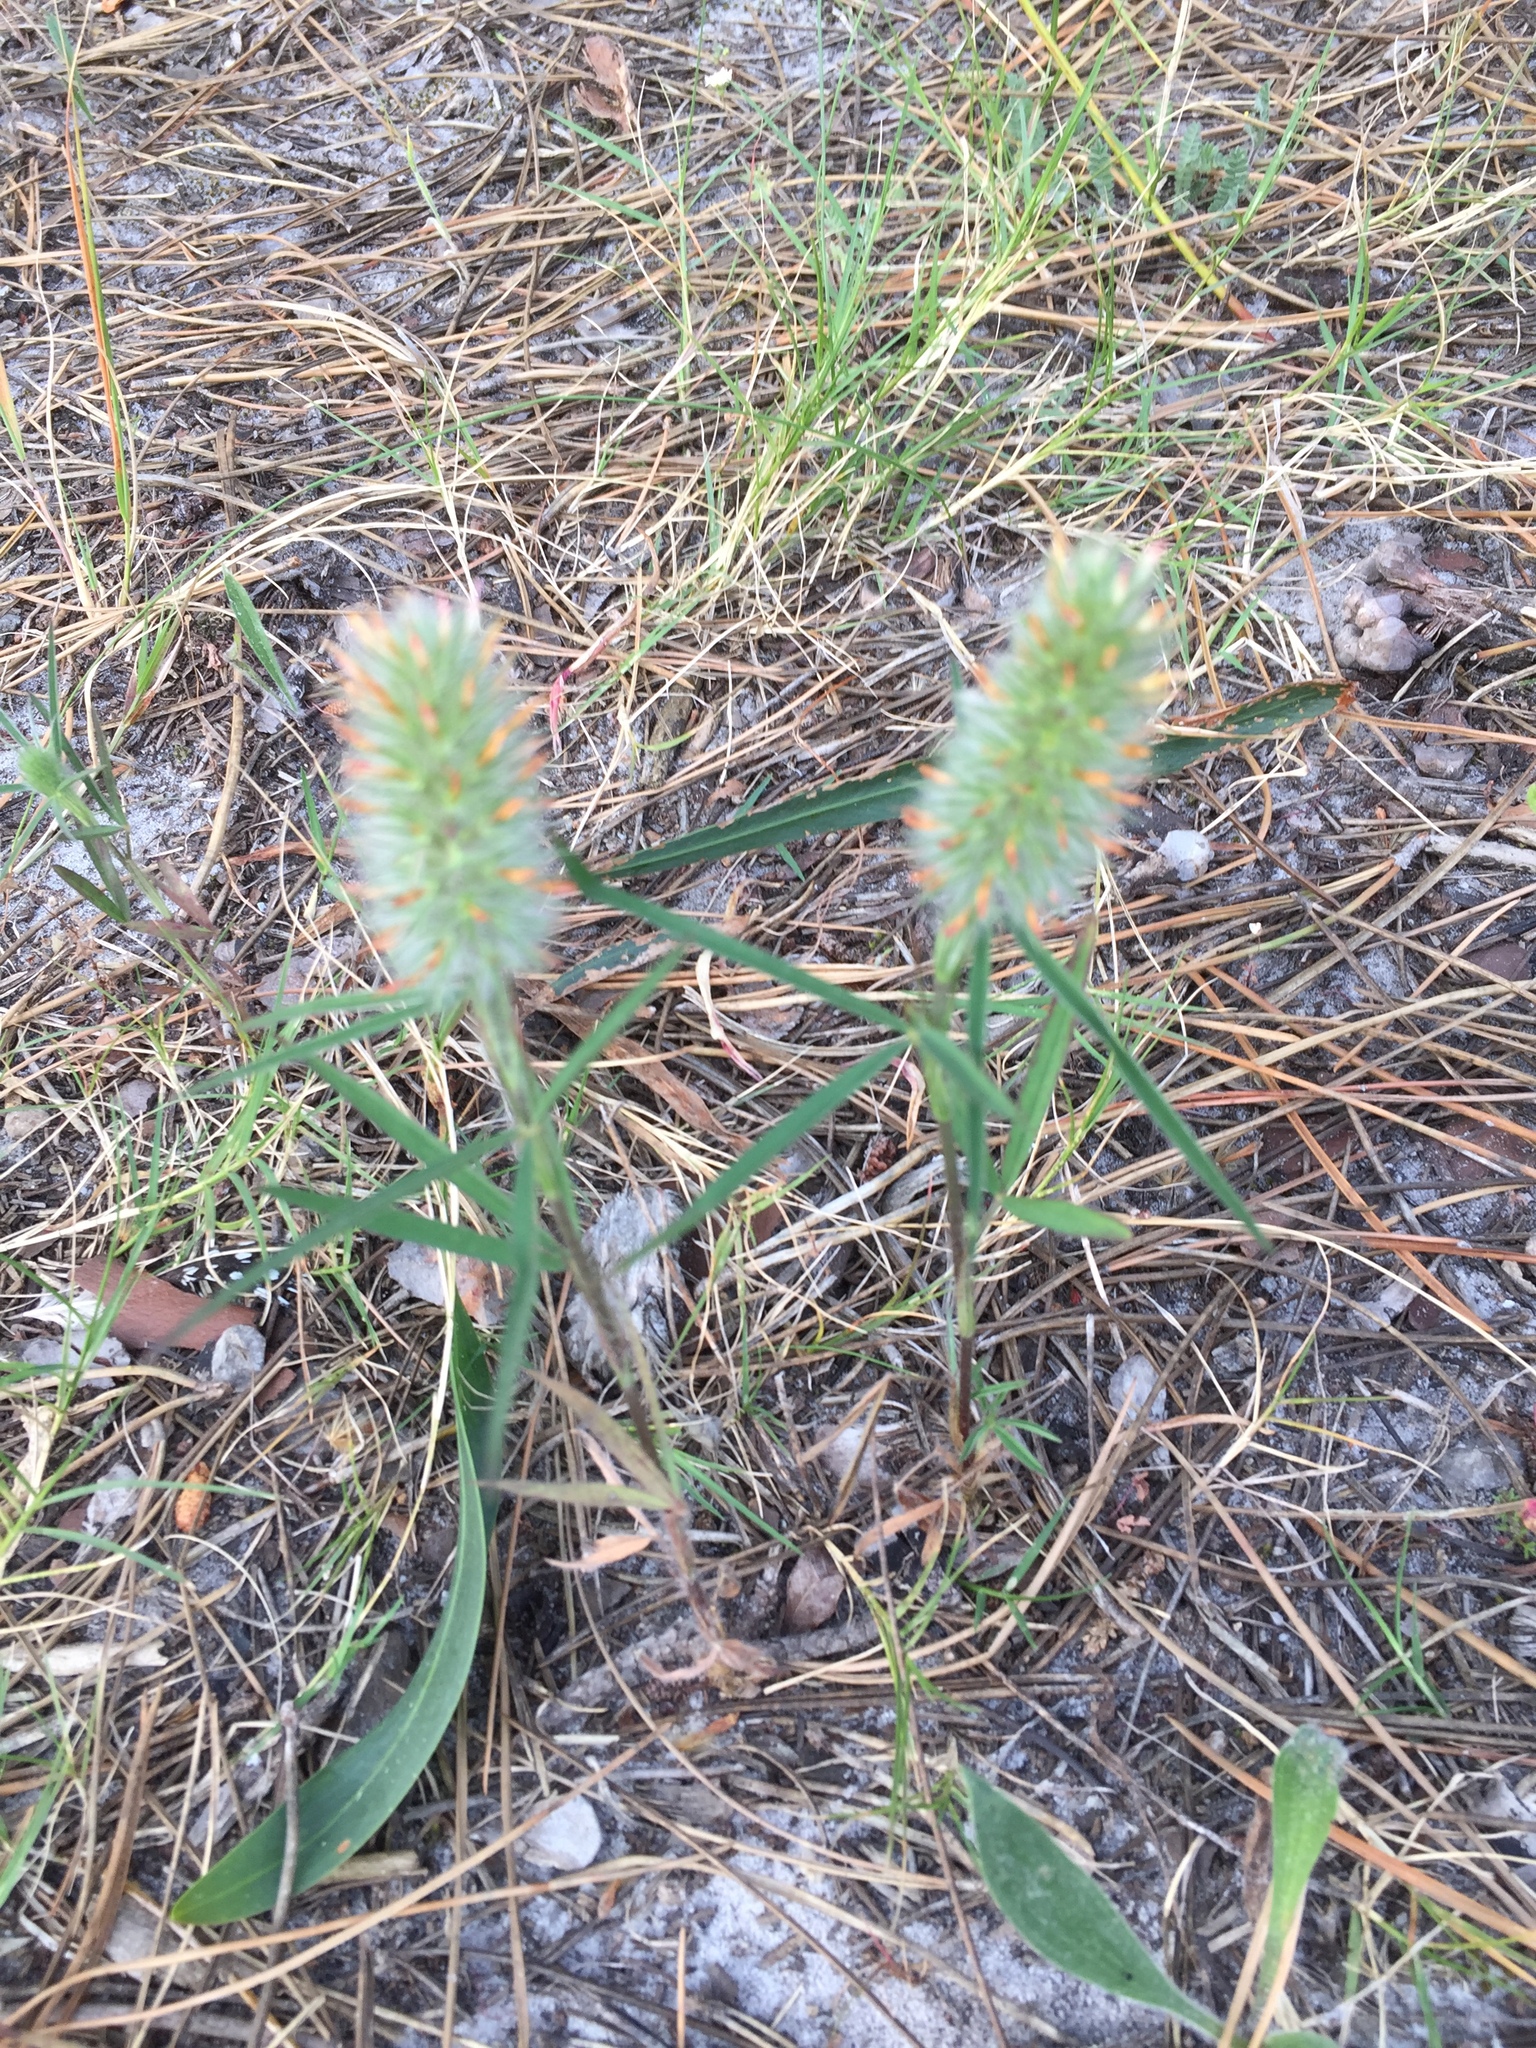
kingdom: Plantae
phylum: Tracheophyta
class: Magnoliopsida
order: Fabales
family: Fabaceae
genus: Trifolium
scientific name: Trifolium angustifolium
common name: Narrow clover
